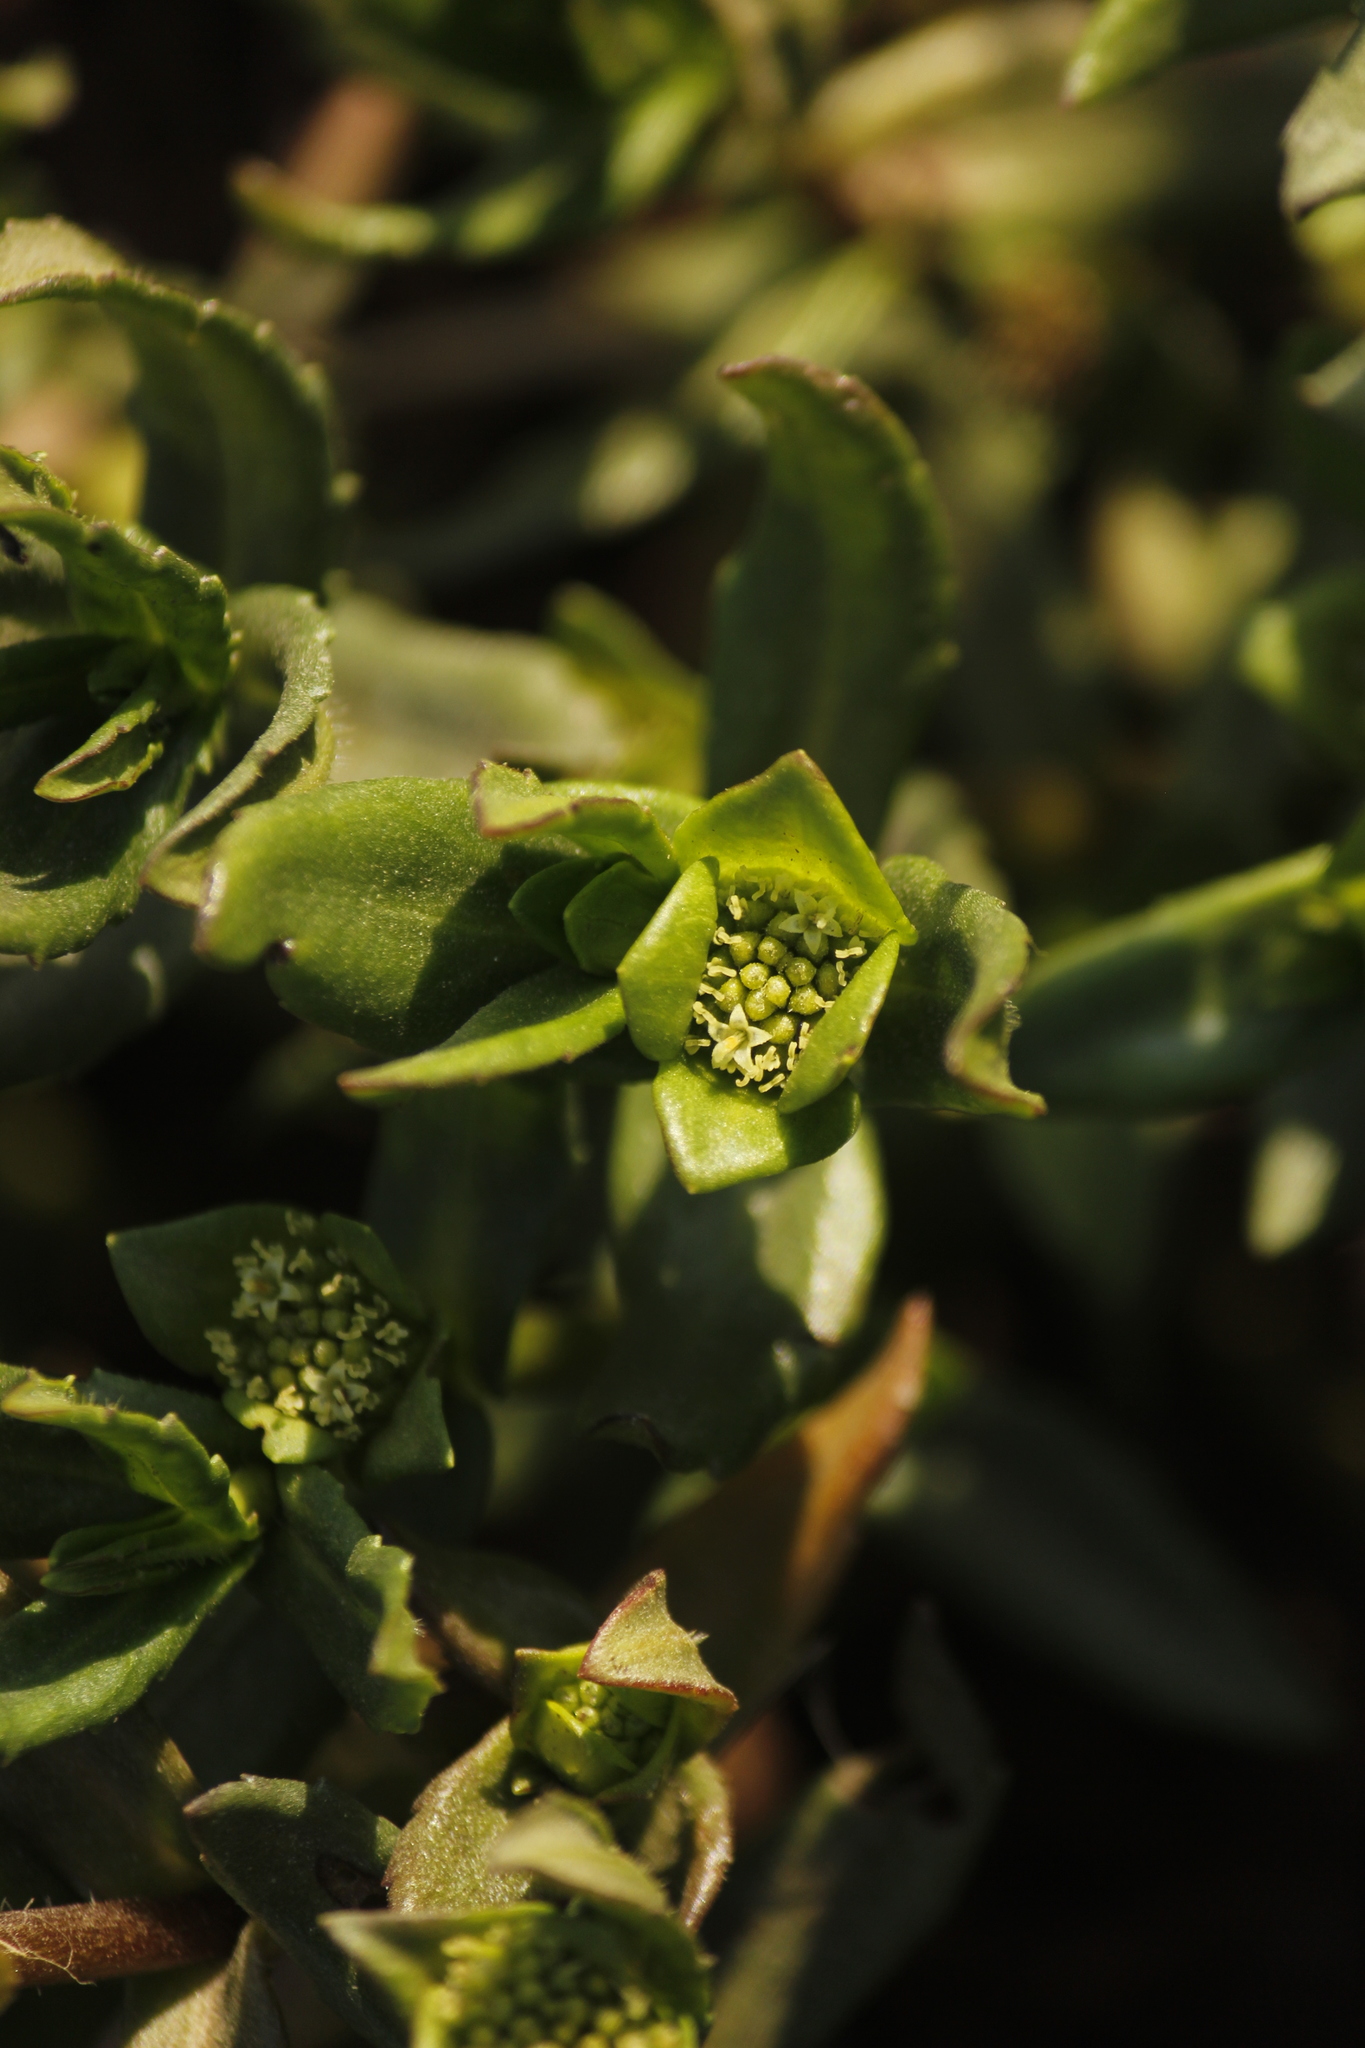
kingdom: Plantae
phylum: Tracheophyta
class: Magnoliopsida
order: Asterales
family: Asteraceae
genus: Enydra
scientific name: Enydra sessilifolia
